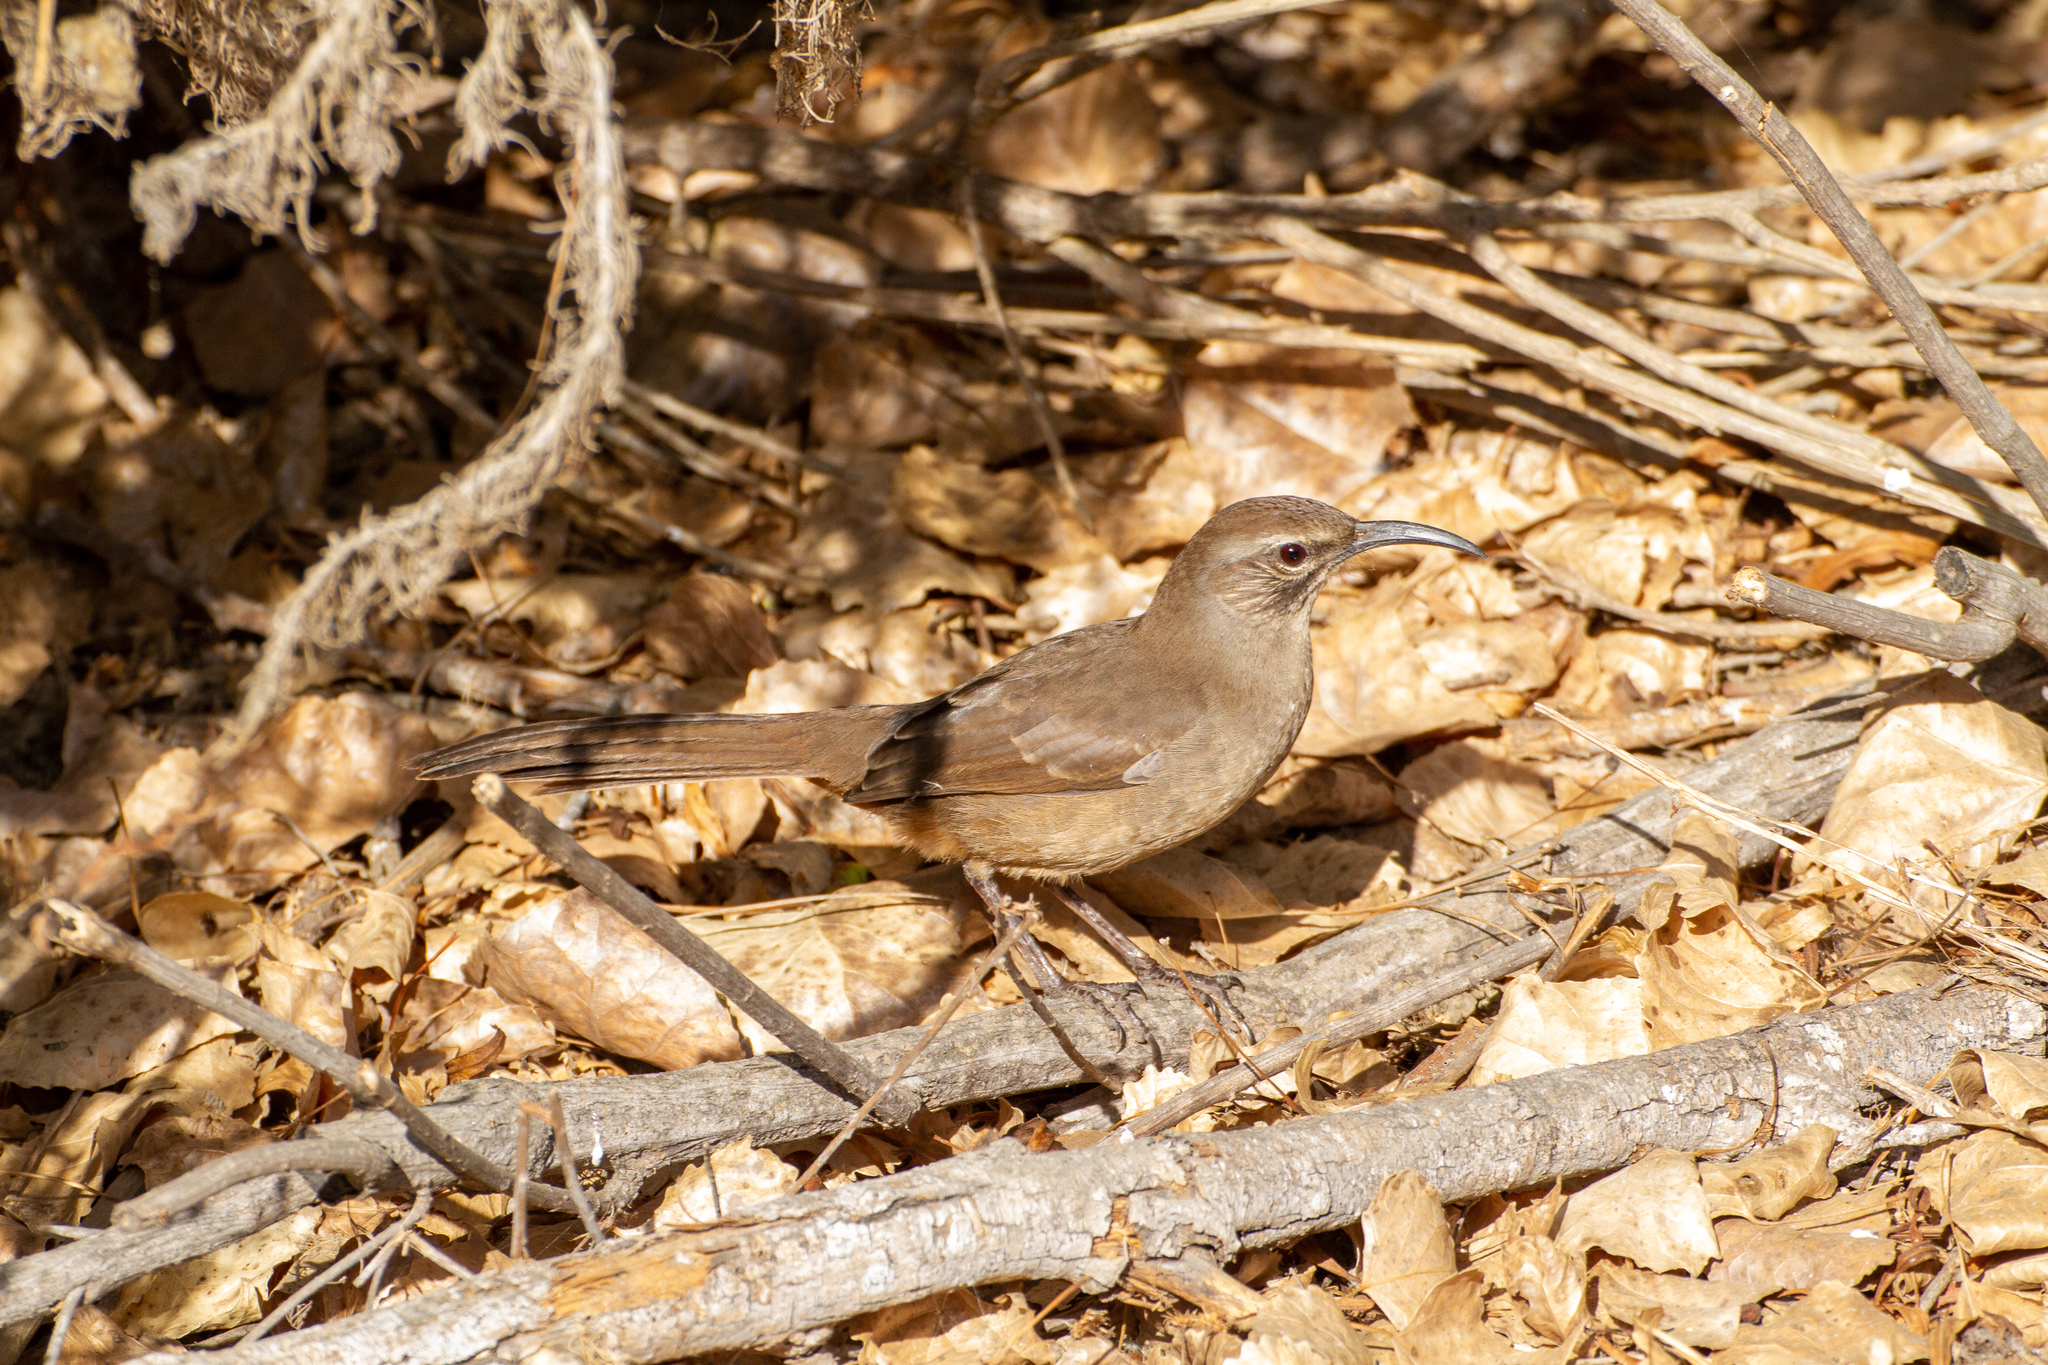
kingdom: Animalia
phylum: Chordata
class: Aves
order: Passeriformes
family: Mimidae
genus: Toxostoma
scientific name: Toxostoma redivivum
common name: California thrasher
